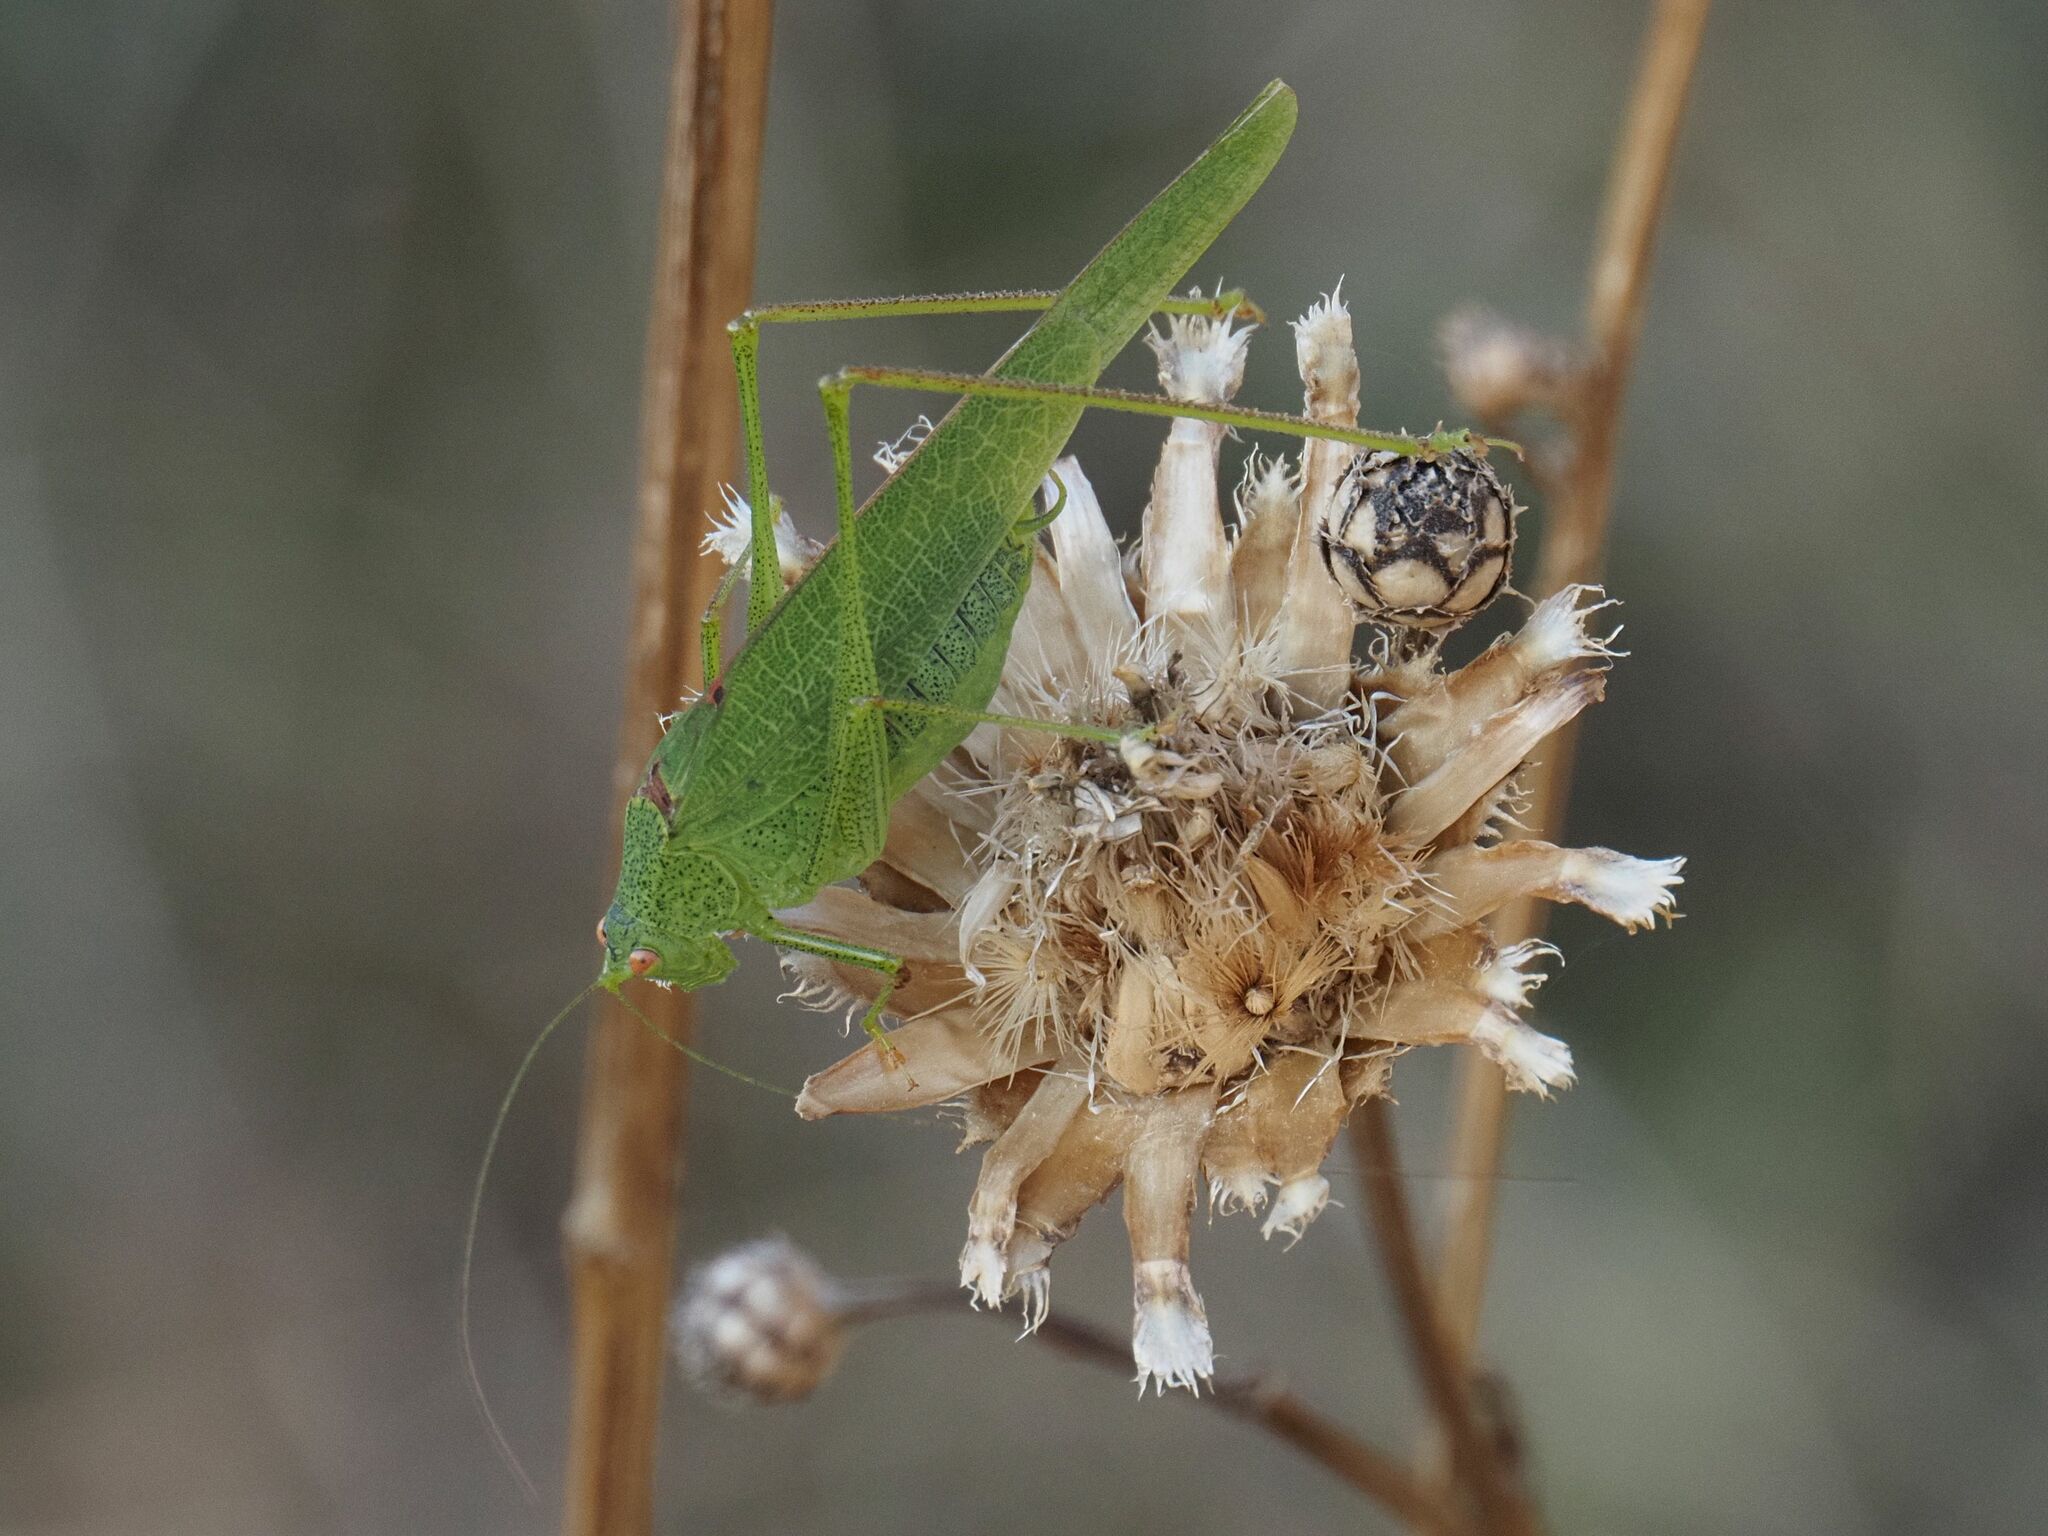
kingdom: Animalia
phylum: Arthropoda
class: Insecta
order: Orthoptera
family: Tettigoniidae
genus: Phaneroptera
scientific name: Phaneroptera nana
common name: Southern sickle bush-cricket
